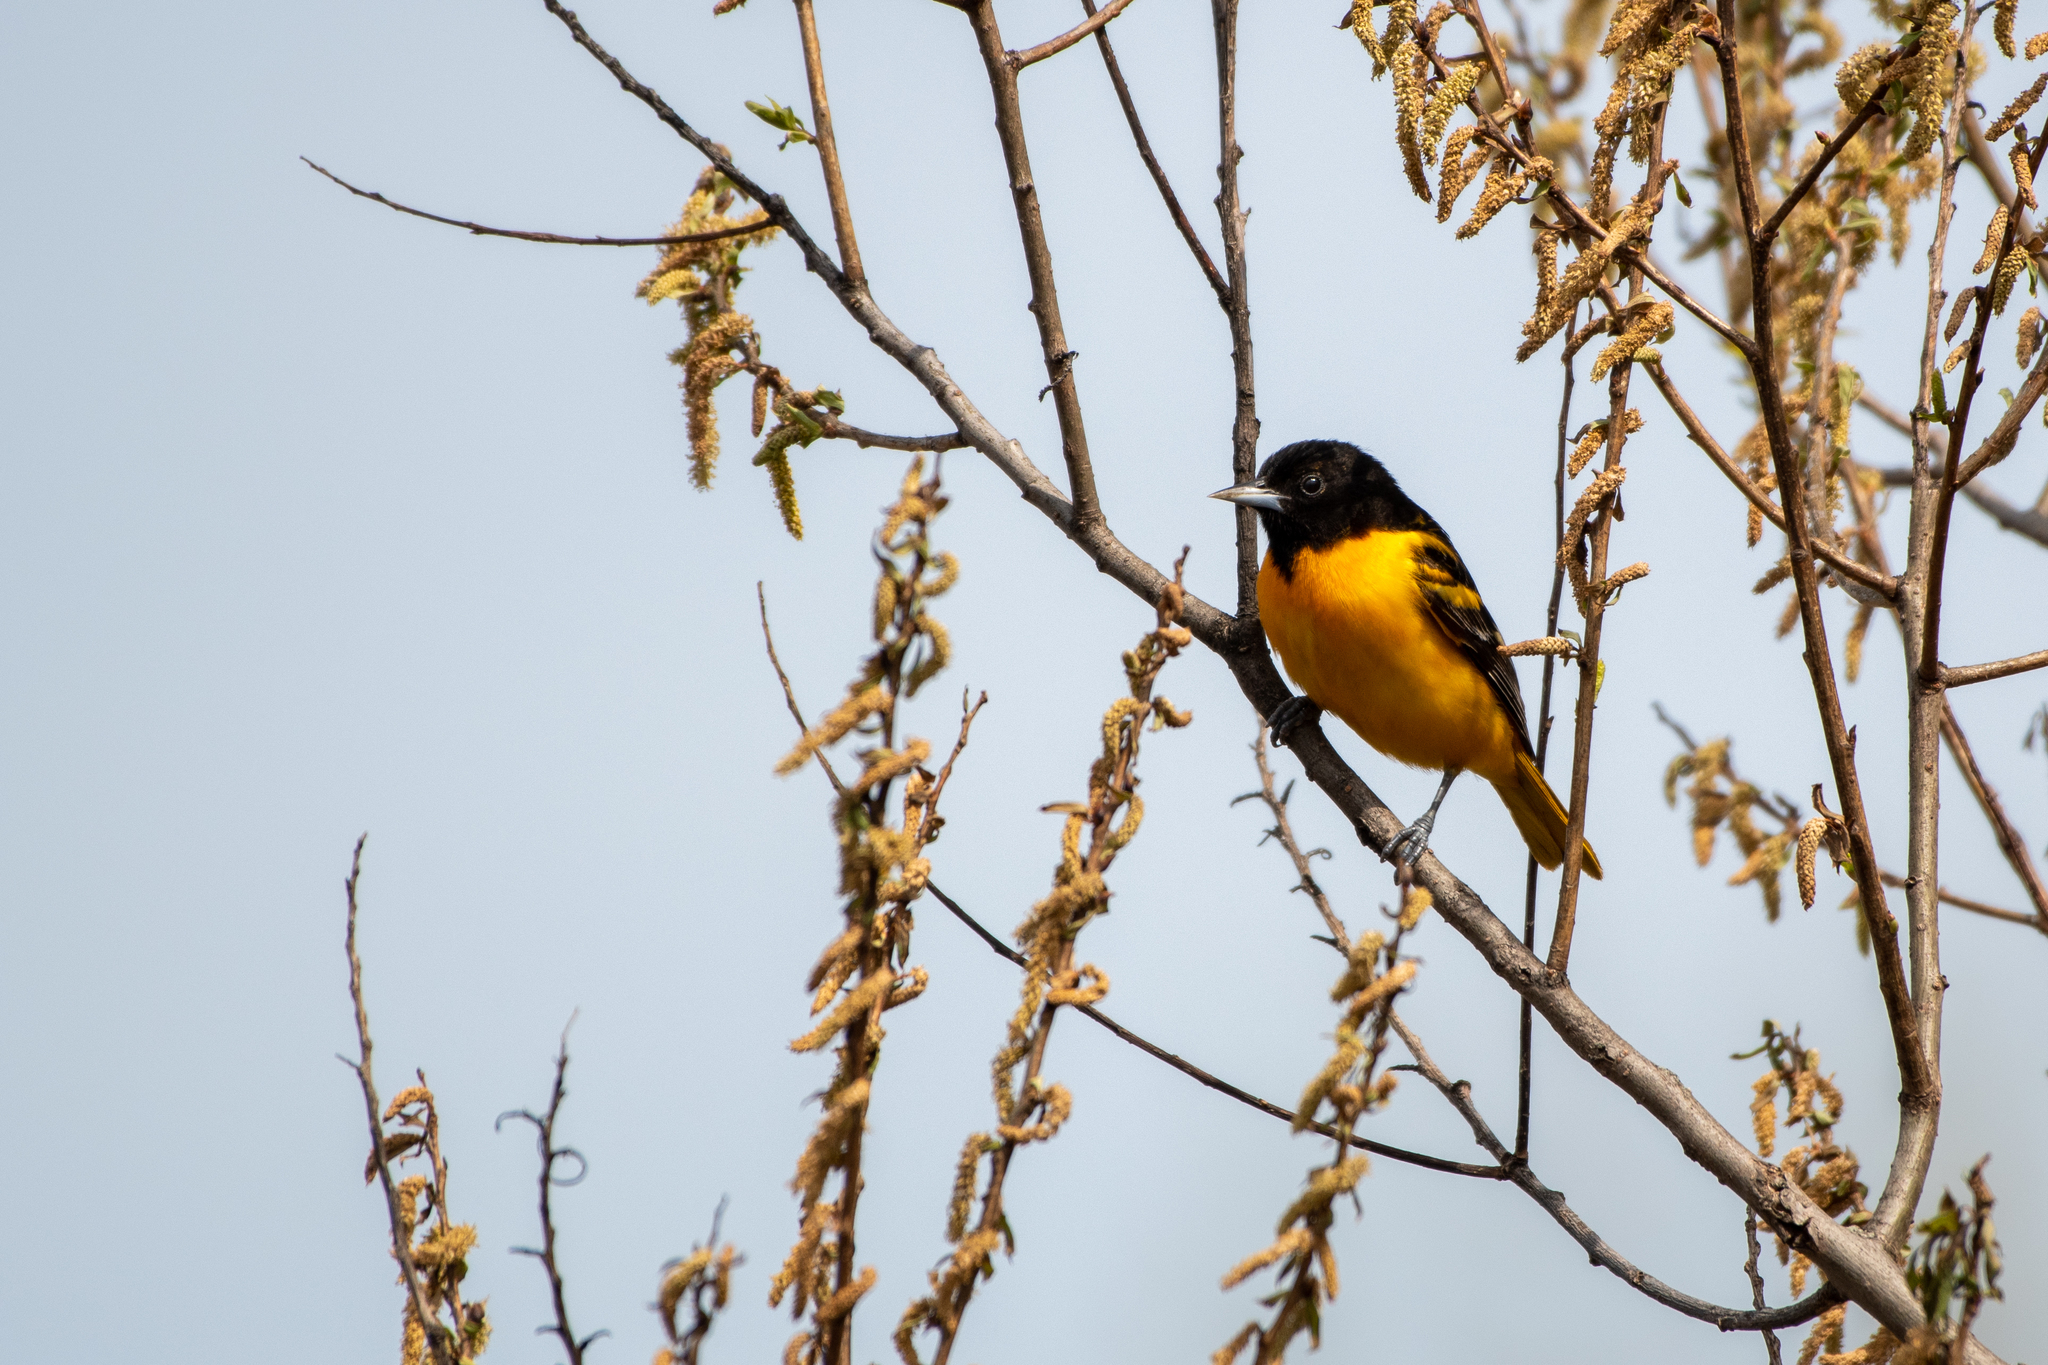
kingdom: Animalia
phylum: Chordata
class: Aves
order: Passeriformes
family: Icteridae
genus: Icterus
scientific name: Icterus galbula
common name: Baltimore oriole
